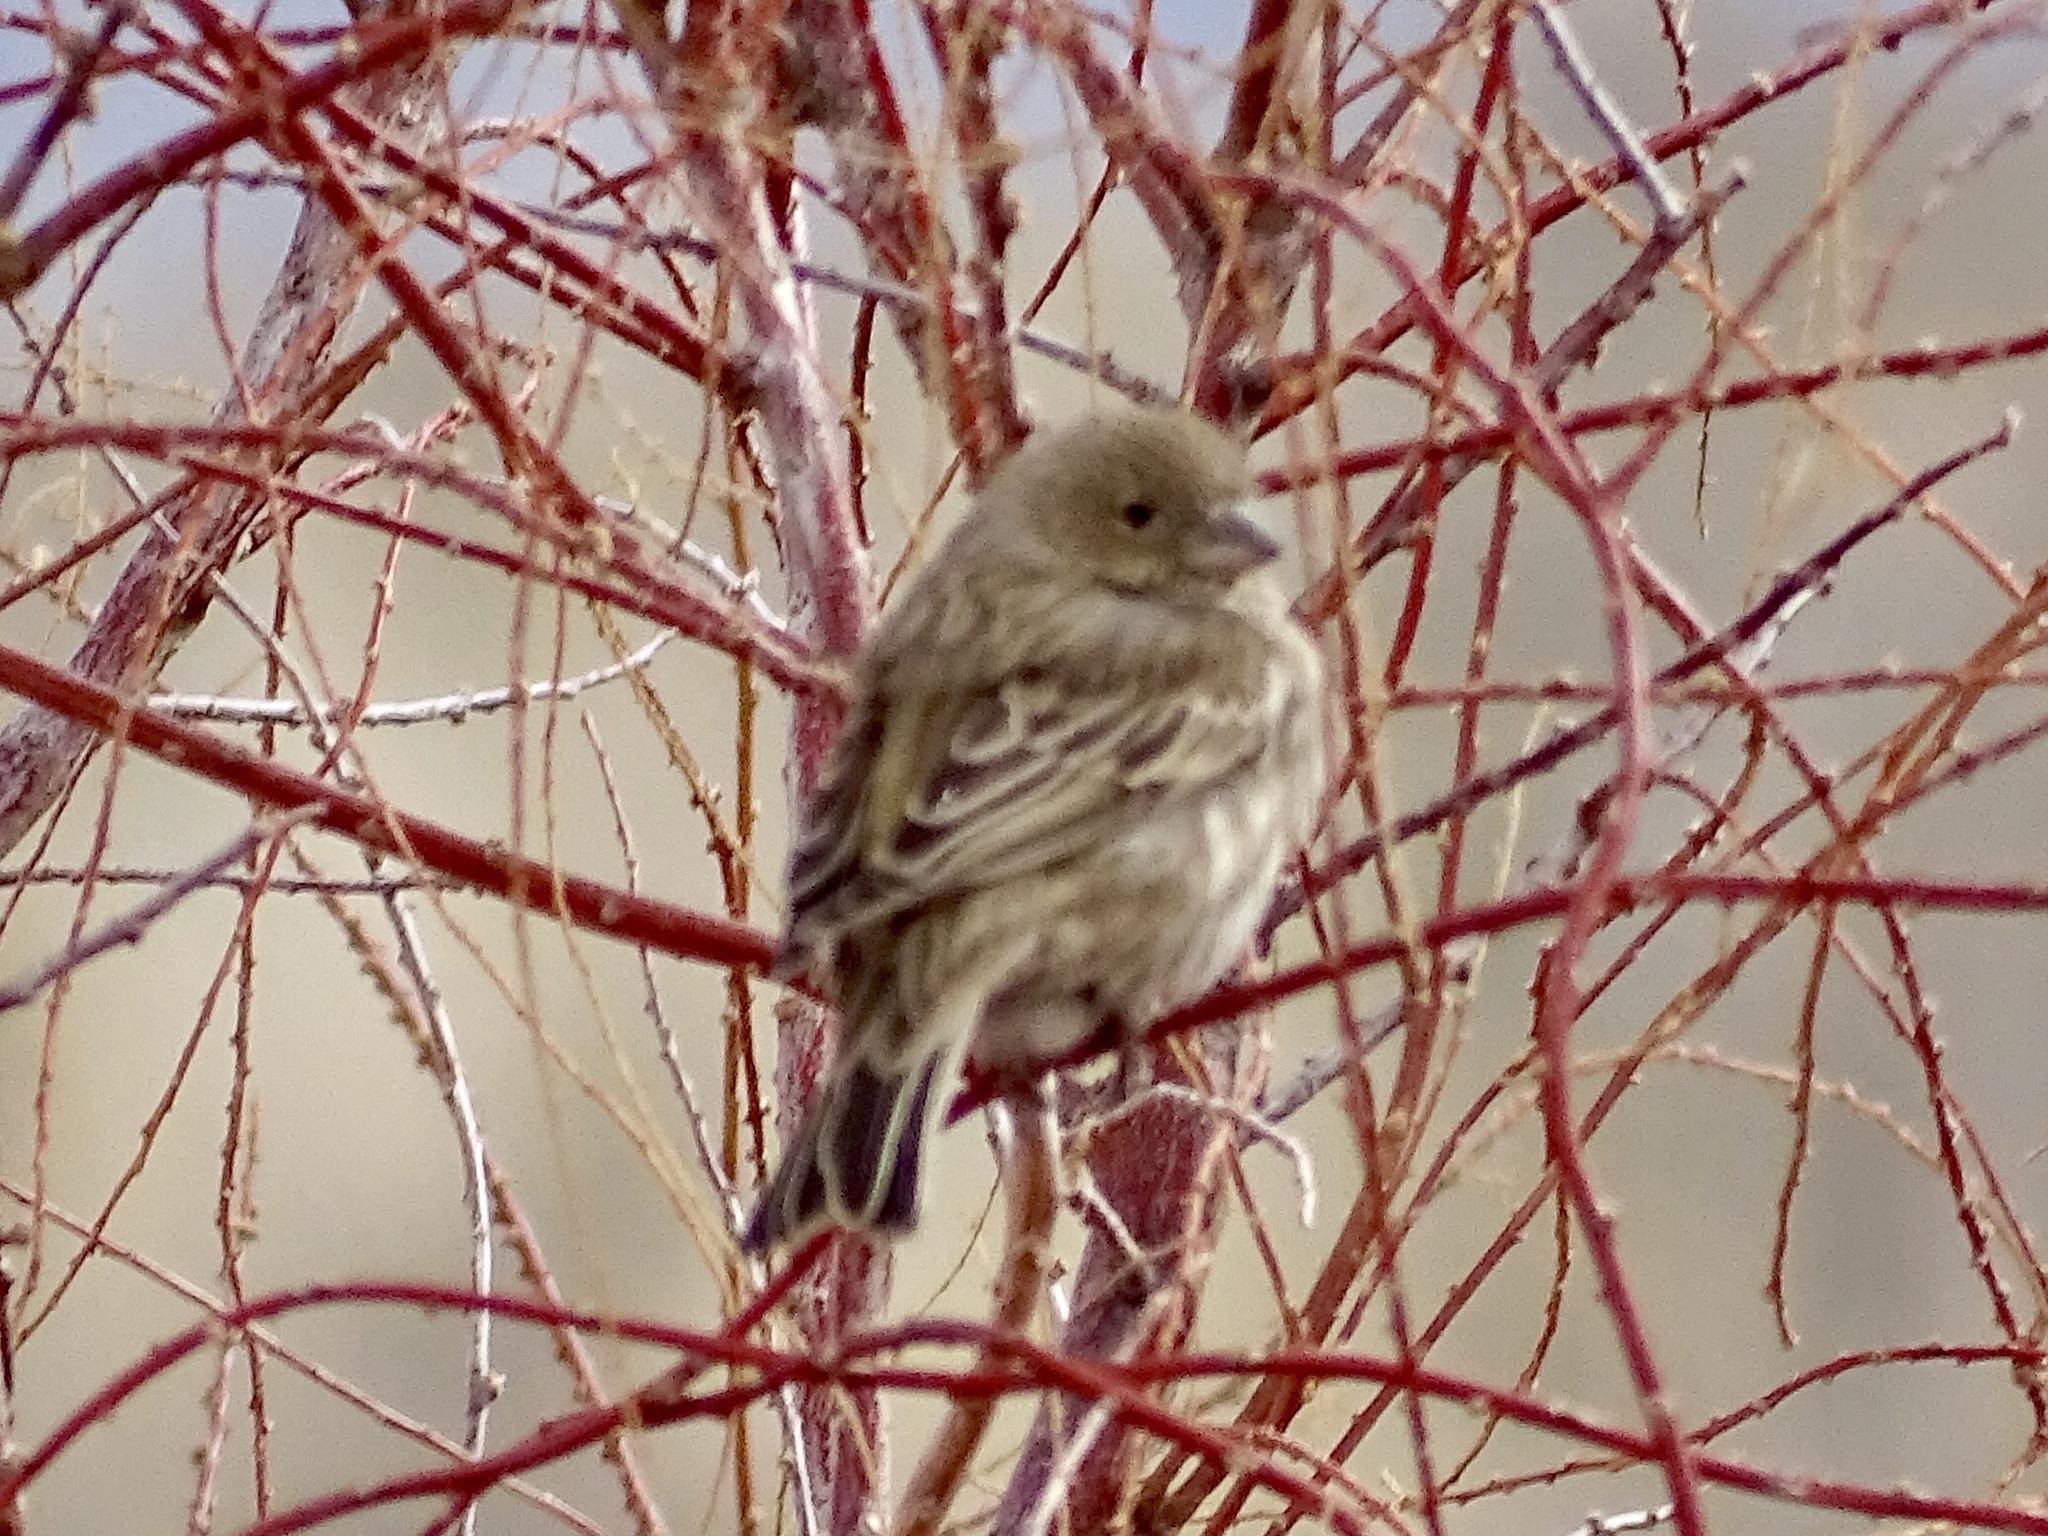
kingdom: Animalia
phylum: Chordata
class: Aves
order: Passeriformes
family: Fringillidae
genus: Haemorhous
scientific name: Haemorhous mexicanus
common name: House finch
